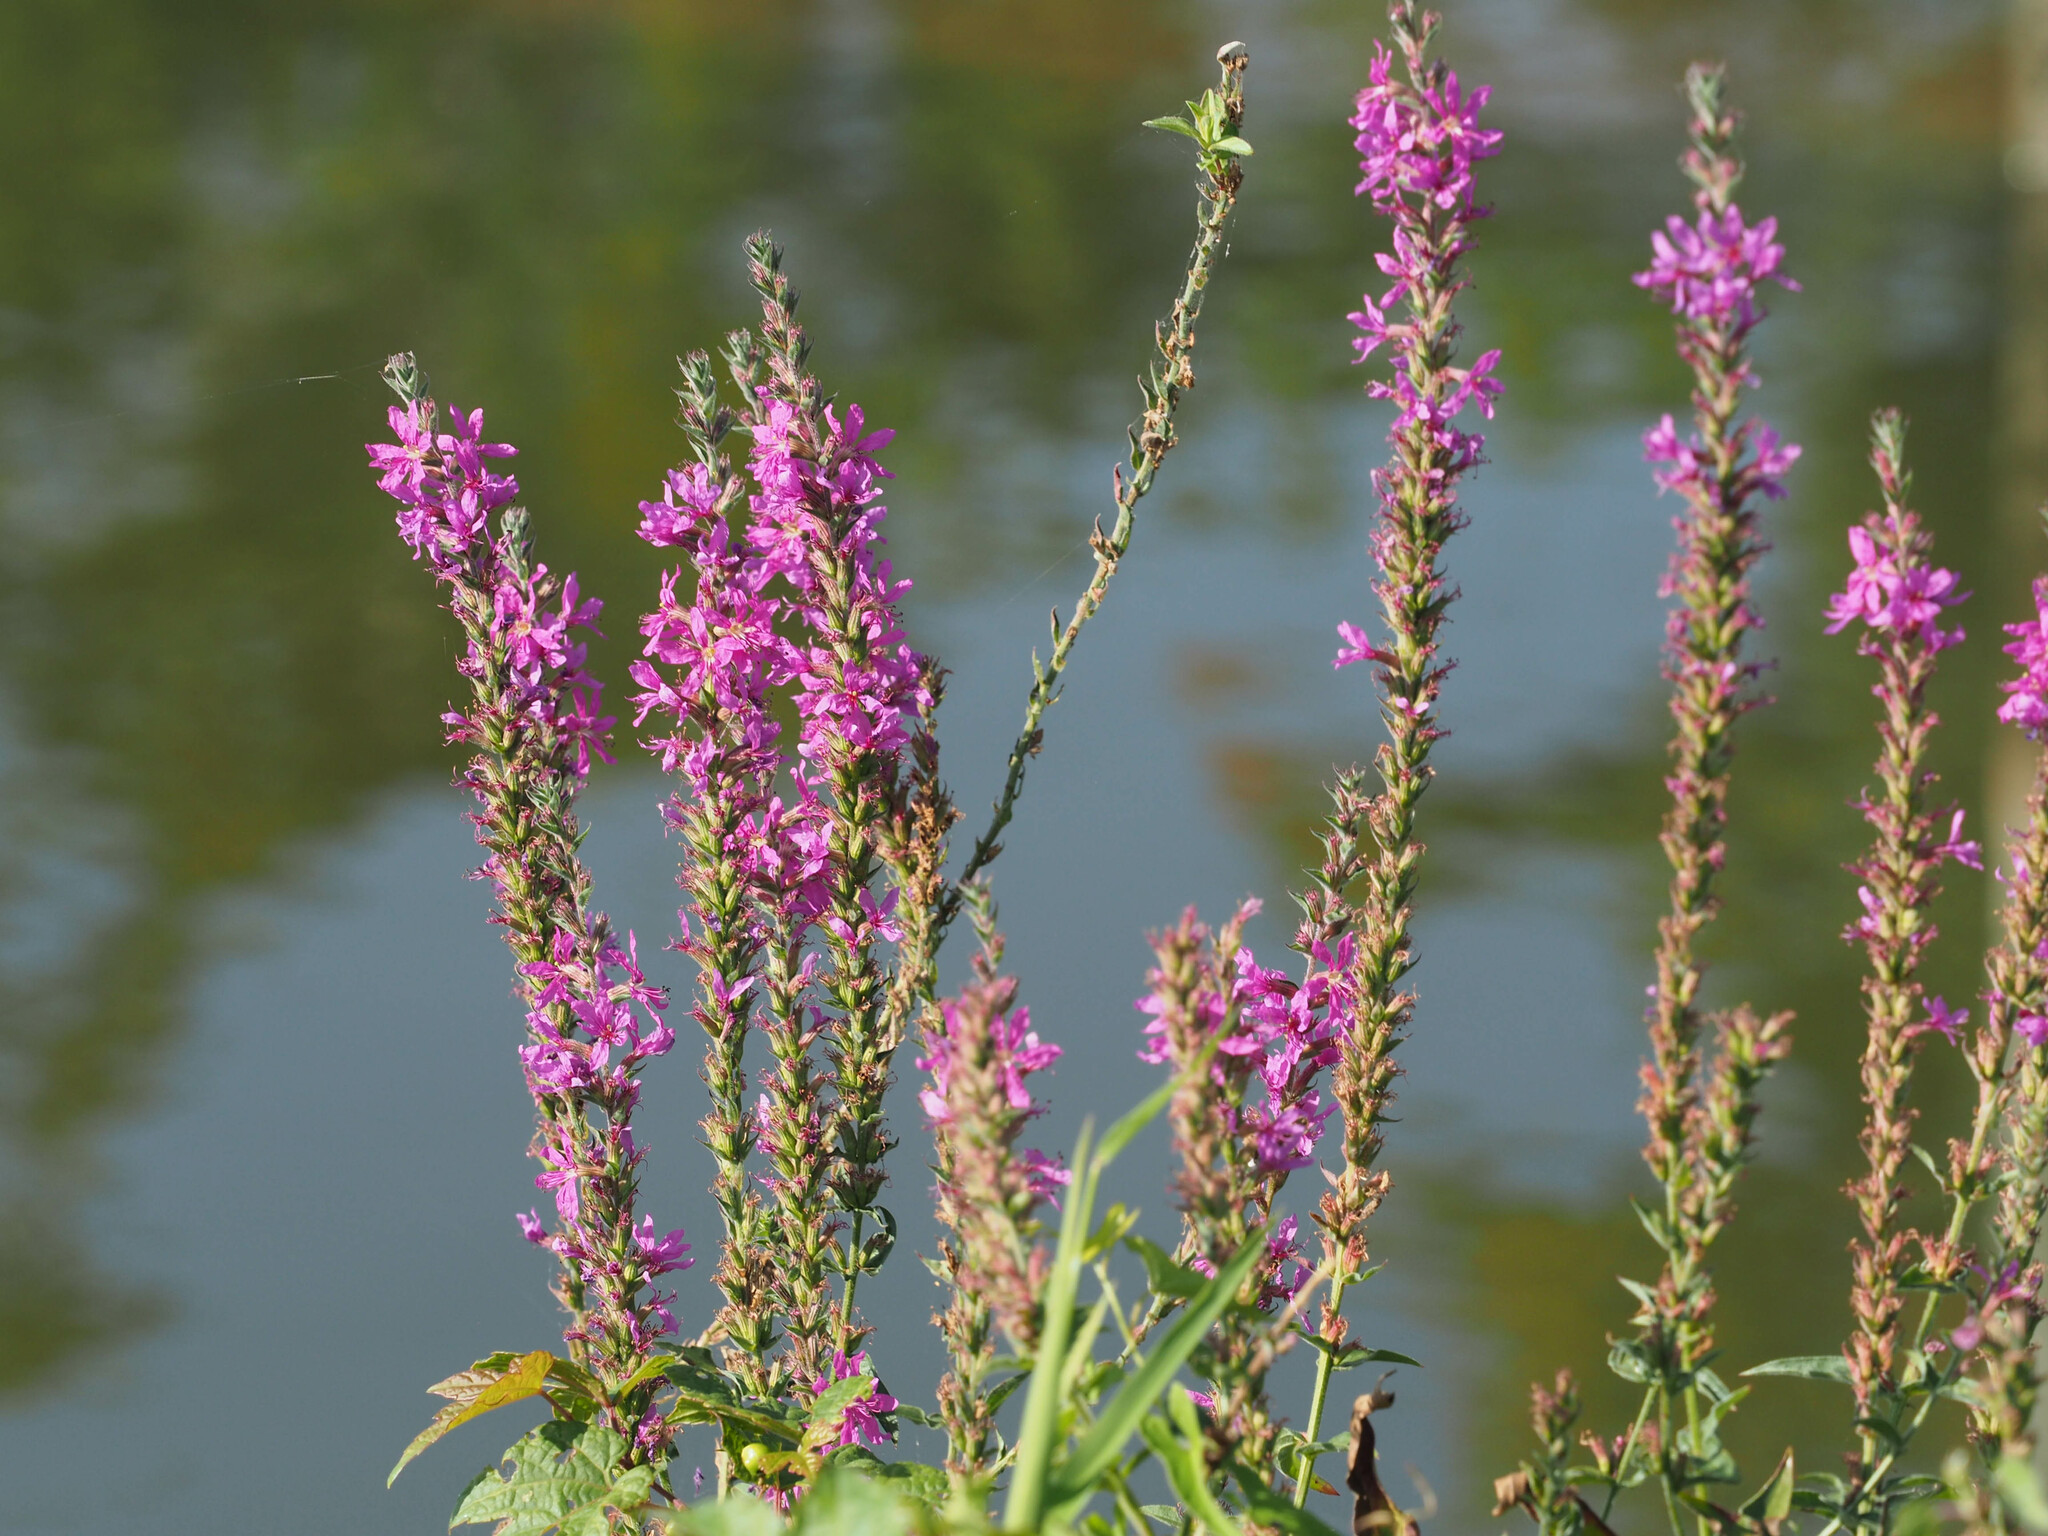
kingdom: Plantae
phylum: Tracheophyta
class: Magnoliopsida
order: Myrtales
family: Lythraceae
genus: Lythrum
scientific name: Lythrum salicaria
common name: Purple loosestrife
